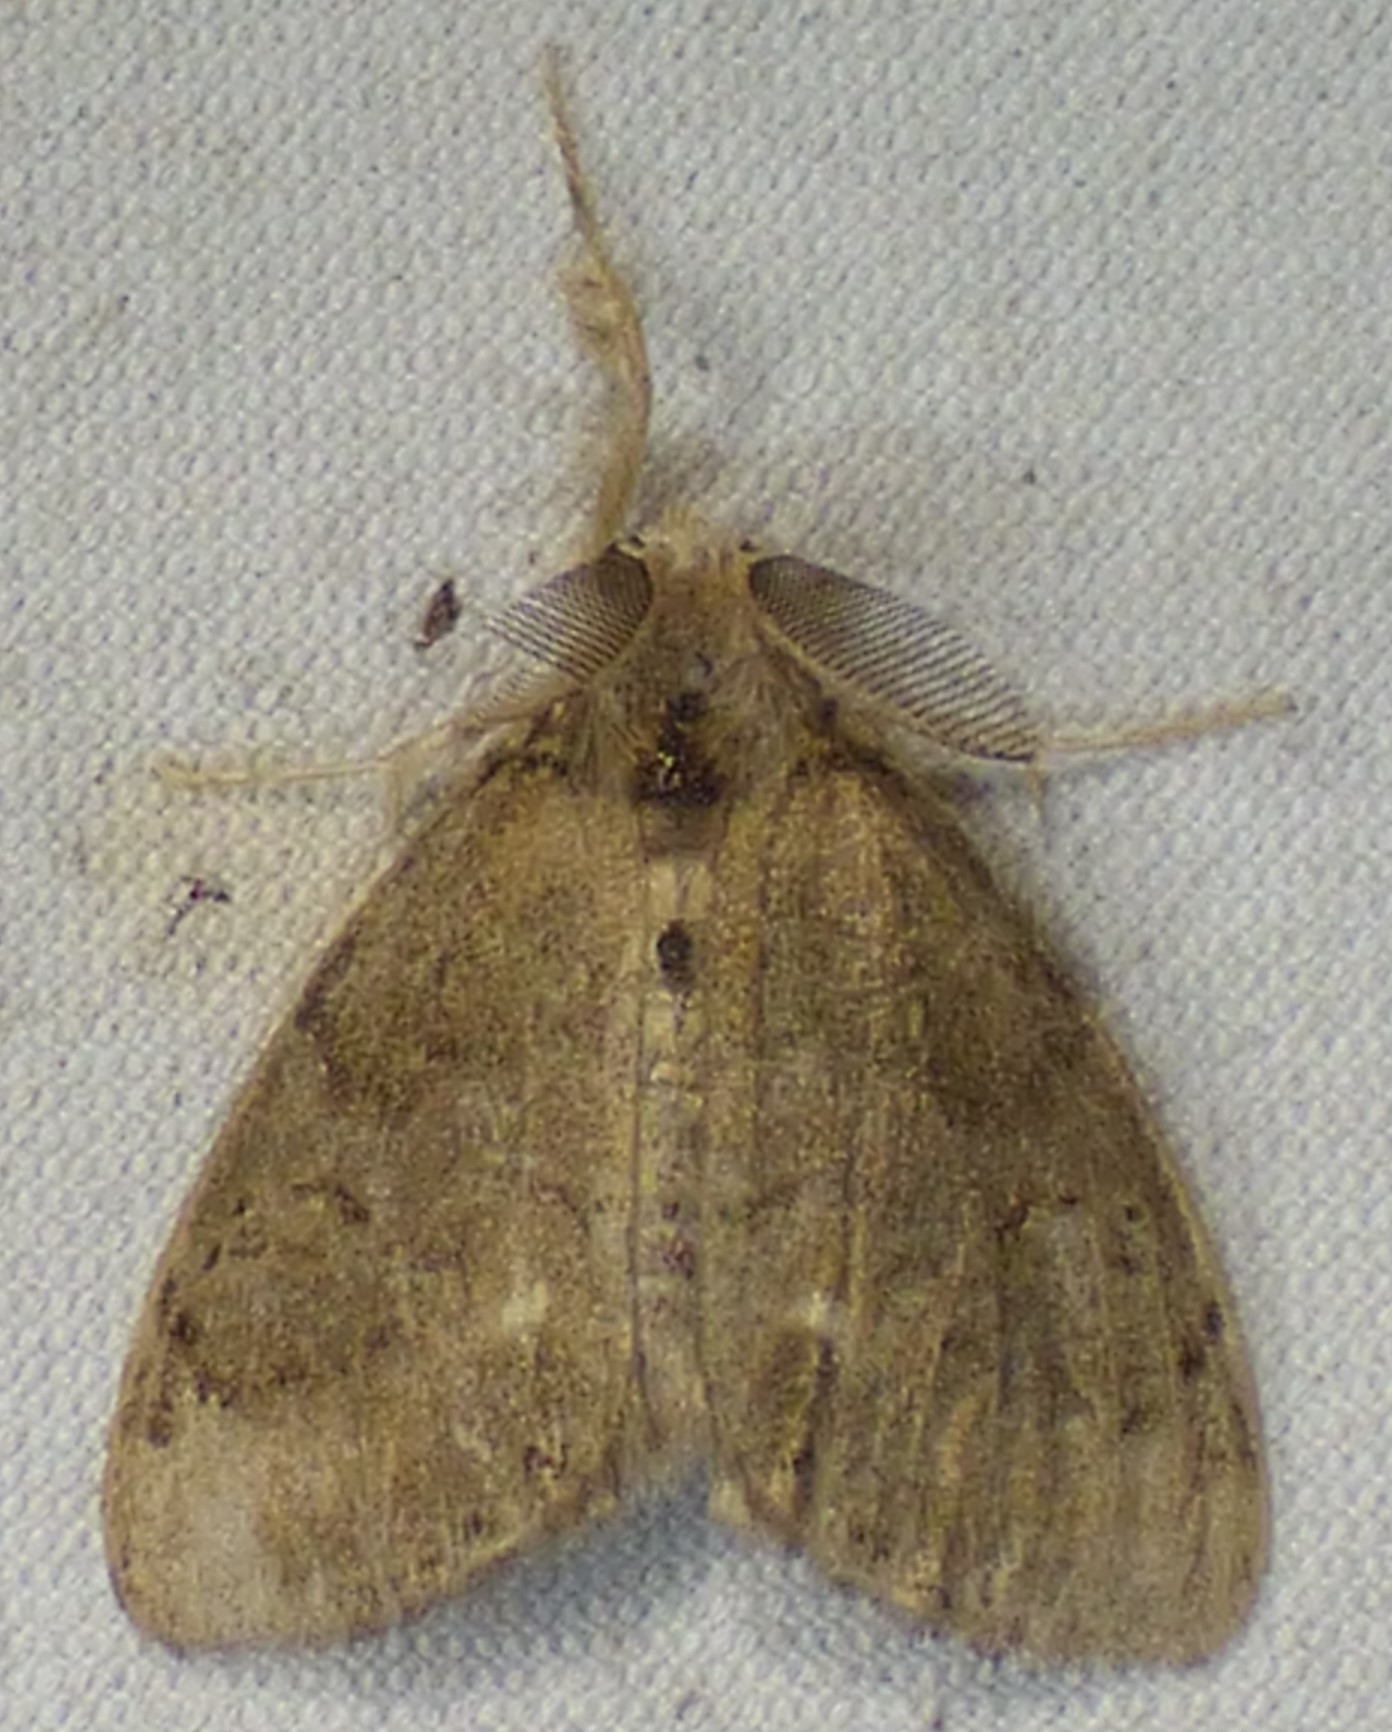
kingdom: Animalia
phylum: Arthropoda
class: Insecta
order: Lepidoptera
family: Erebidae
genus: Orgyia
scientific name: Orgyia leucostigma
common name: White-marked tussock moth
